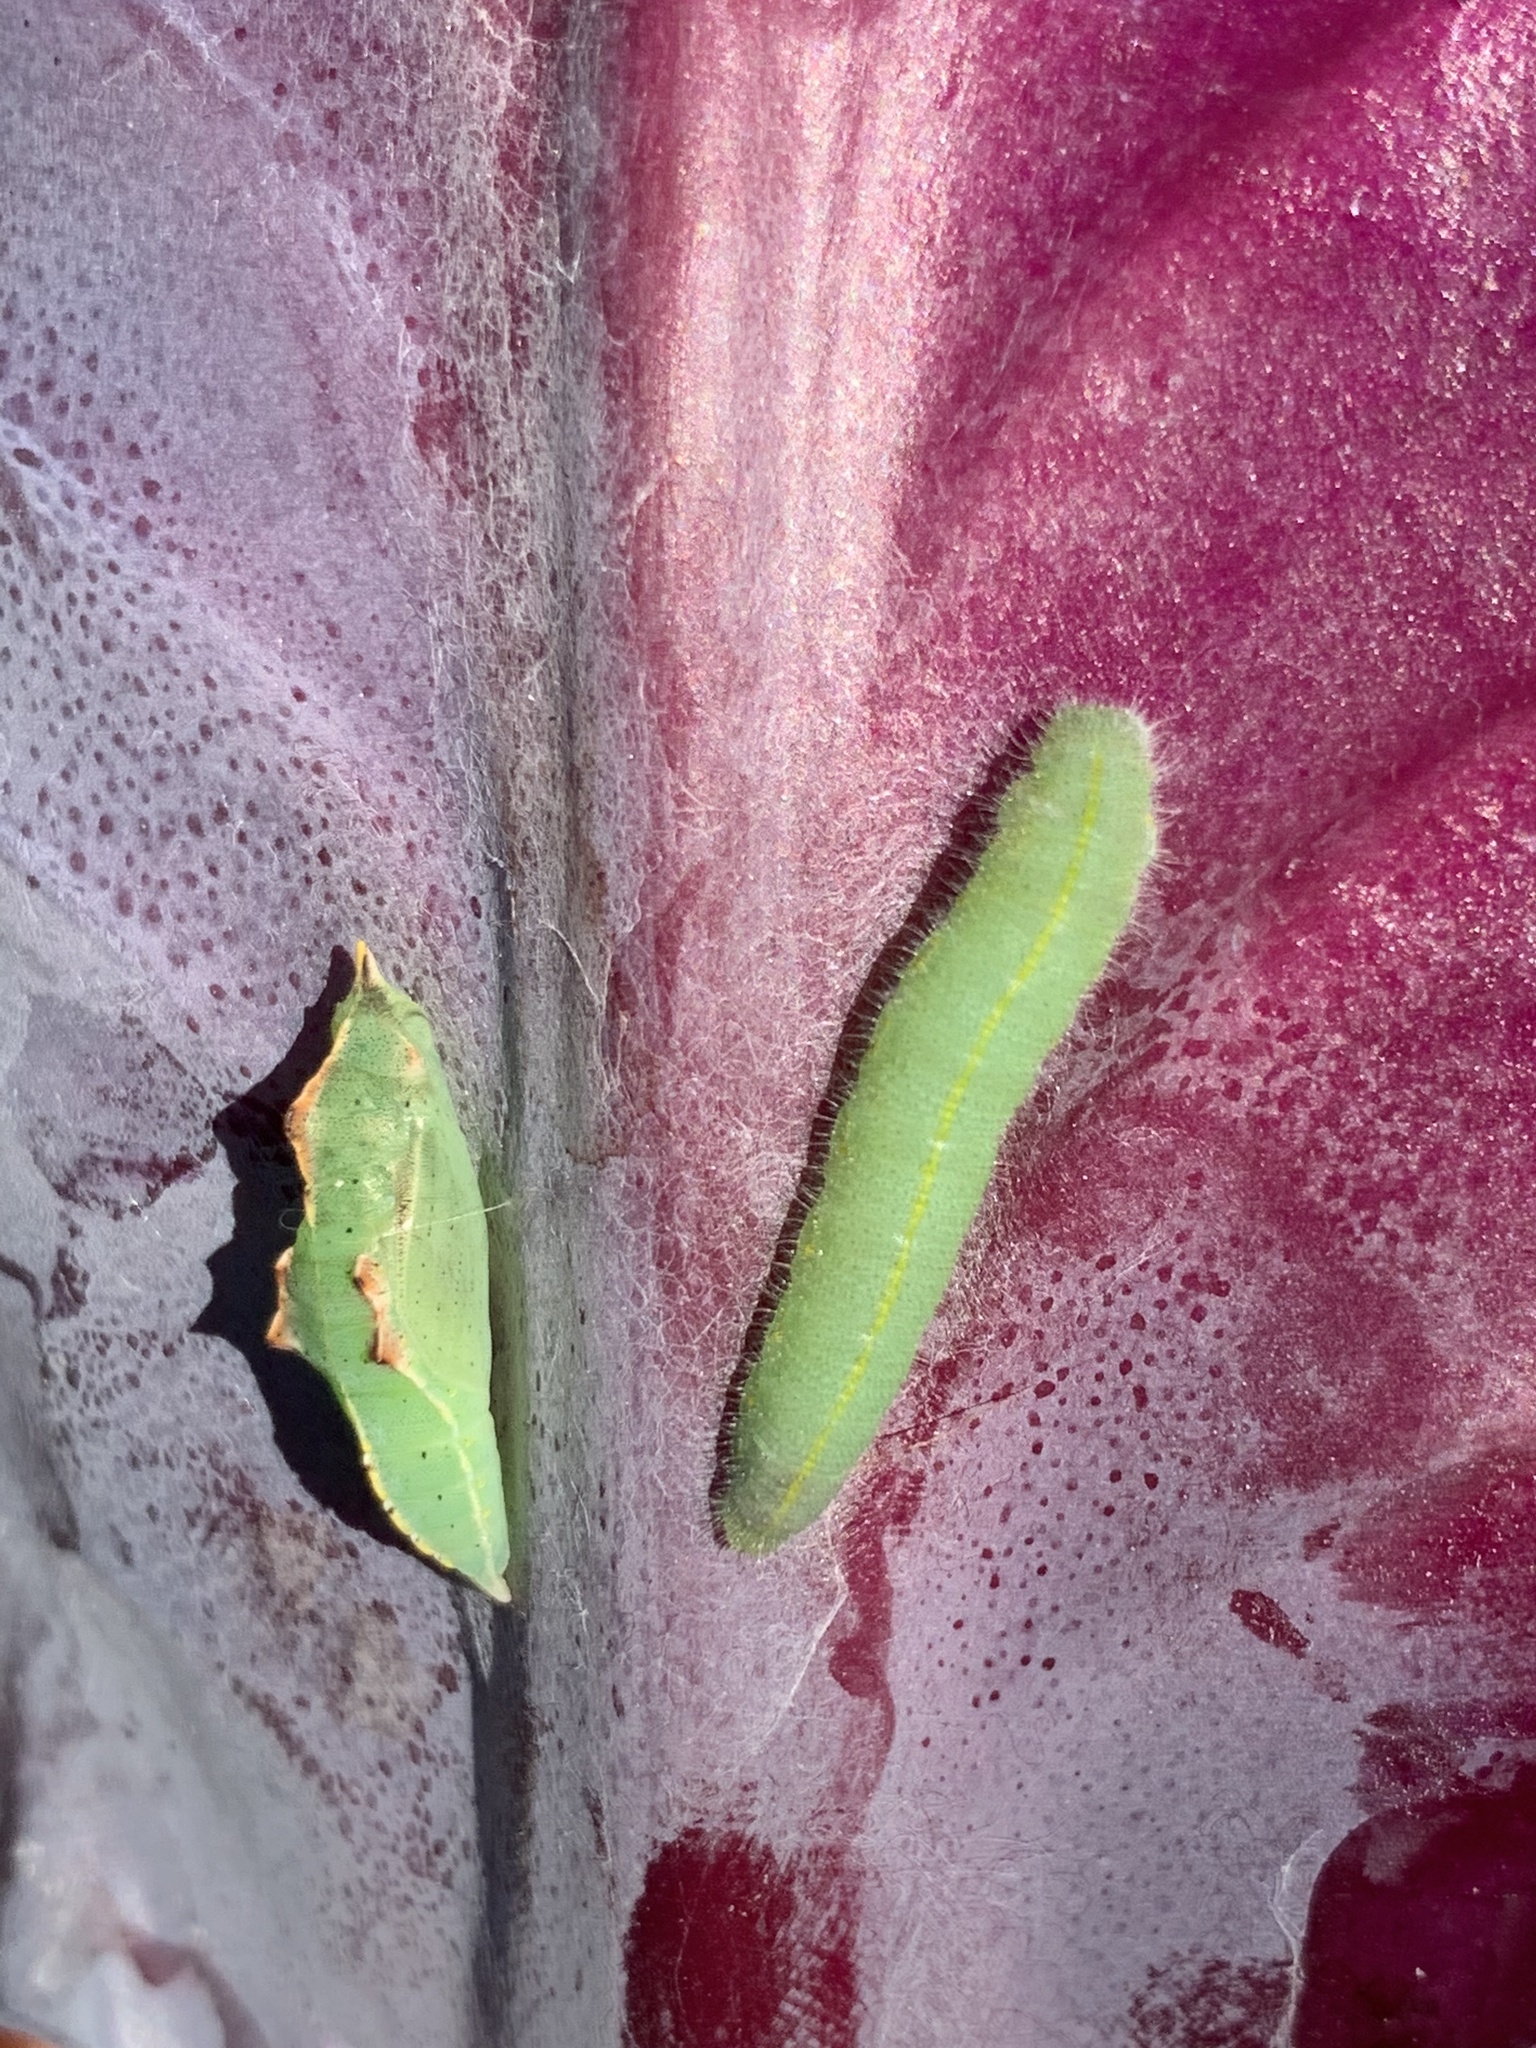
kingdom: Animalia
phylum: Arthropoda
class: Insecta
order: Lepidoptera
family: Pieridae
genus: Pieris
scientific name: Pieris rapae
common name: Small white
